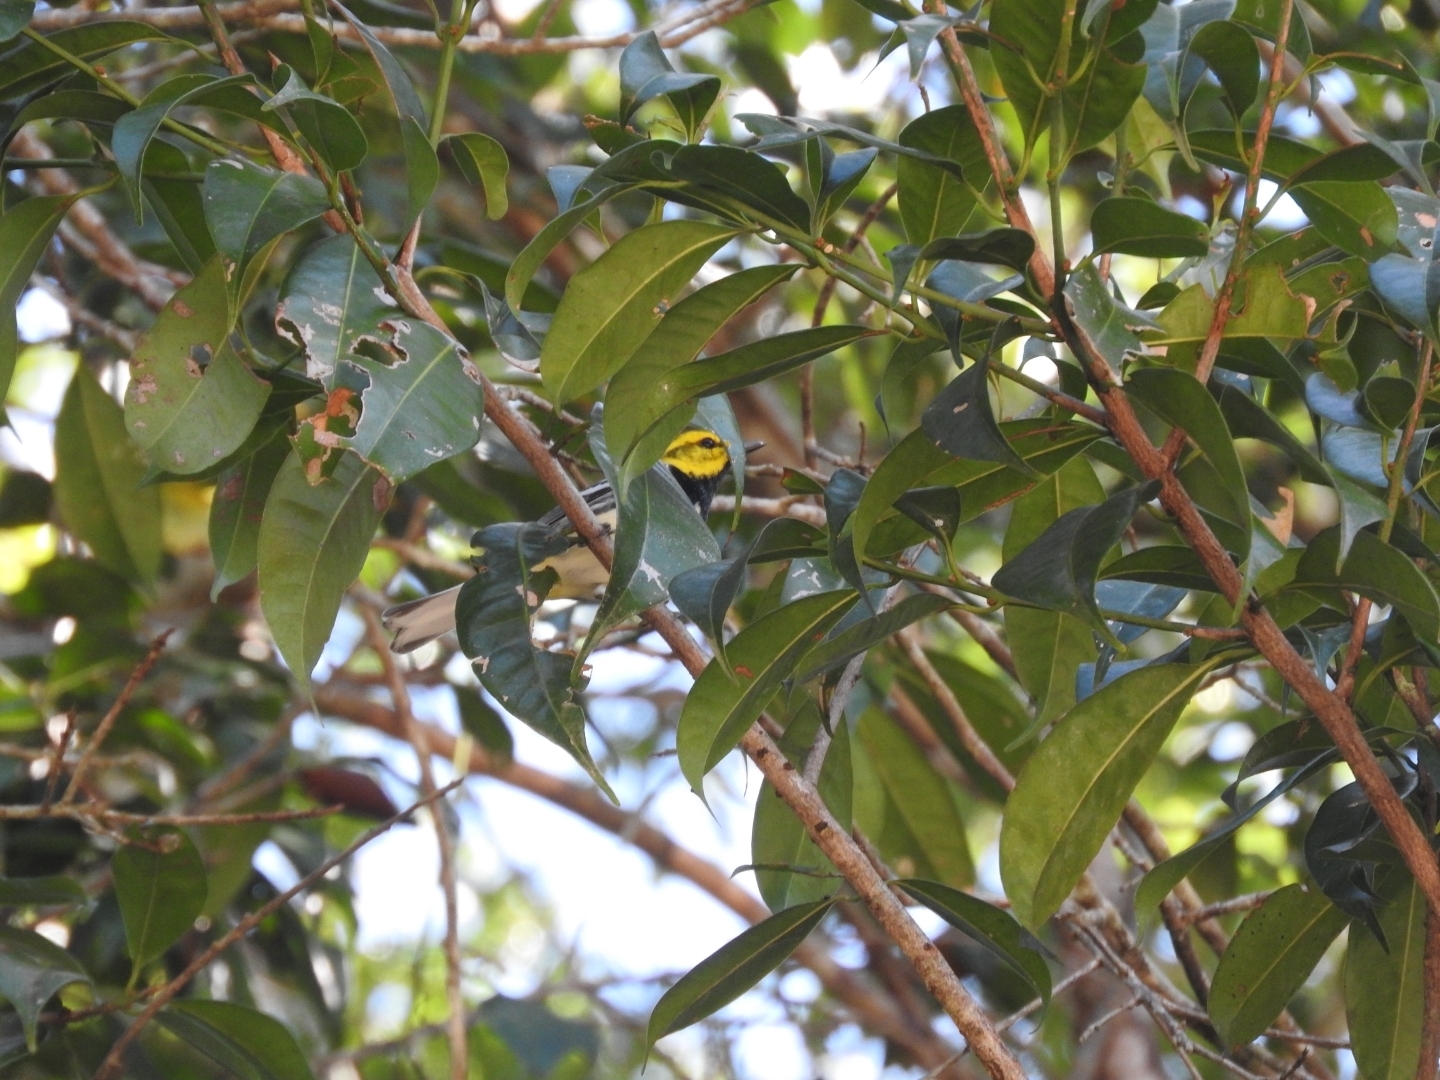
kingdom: Animalia
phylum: Chordata
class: Aves
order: Passeriformes
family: Parulidae
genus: Setophaga
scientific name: Setophaga virens
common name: Black-throated green warbler
